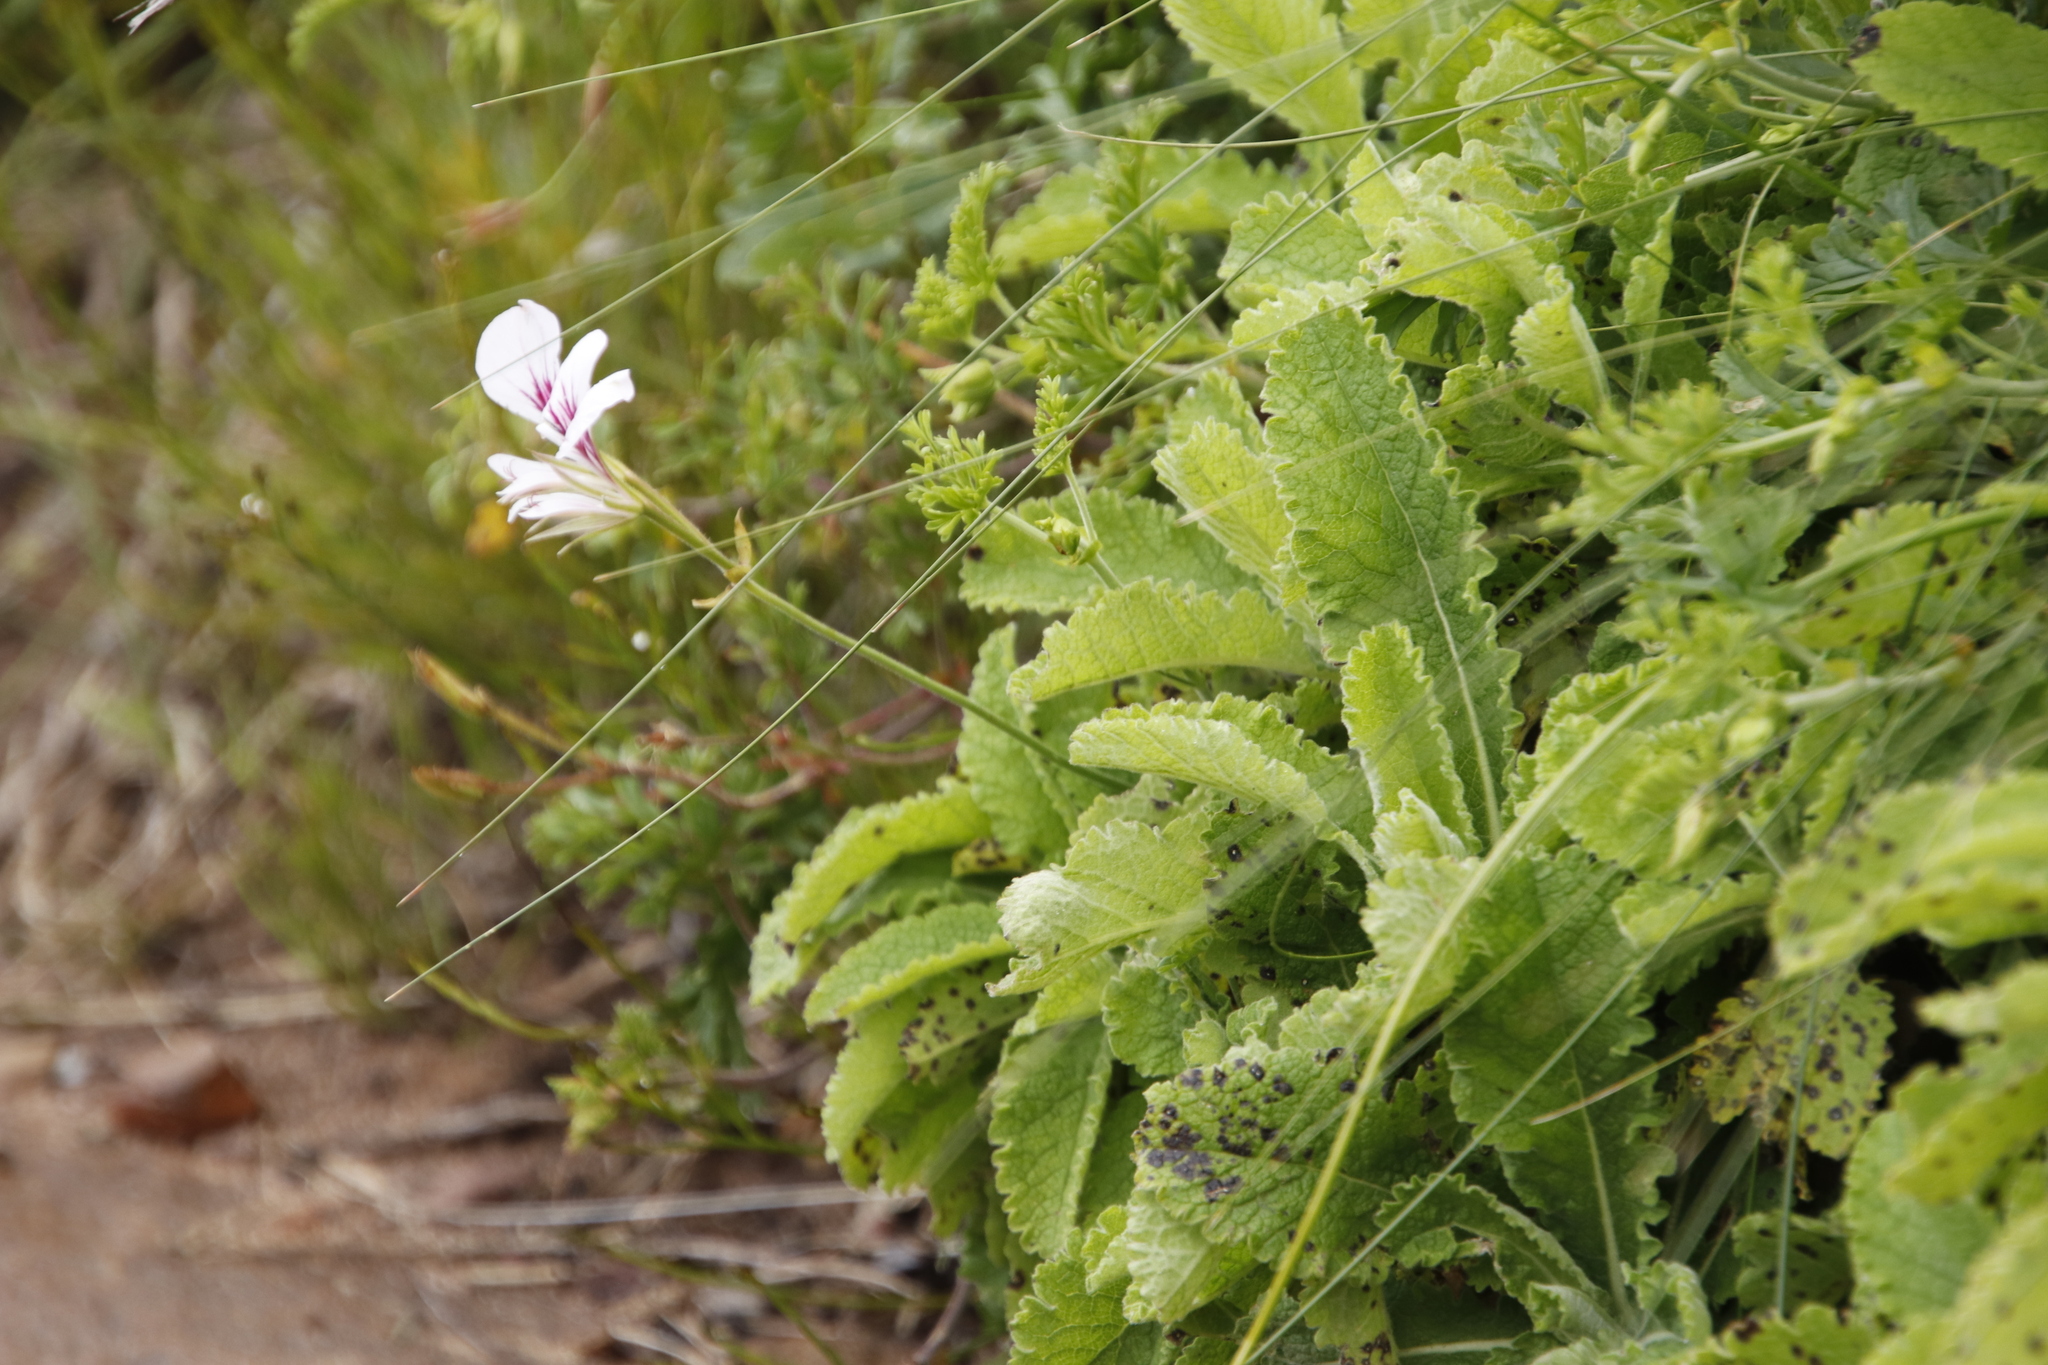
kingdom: Plantae
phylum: Tracheophyta
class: Magnoliopsida
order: Geraniales
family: Geraniaceae
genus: Pelargonium
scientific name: Pelargonium longicaule
